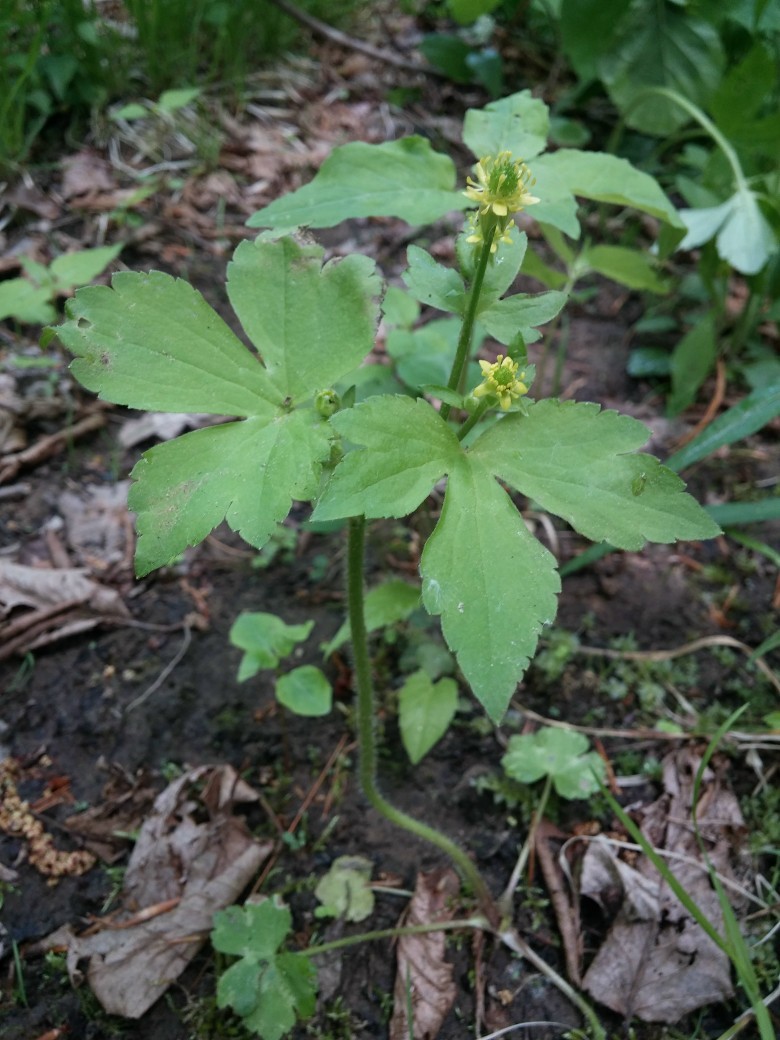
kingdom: Plantae
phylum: Tracheophyta
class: Magnoliopsida
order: Ranunculales
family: Ranunculaceae
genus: Ranunculus
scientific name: Ranunculus recurvatus
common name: Blisterwort
